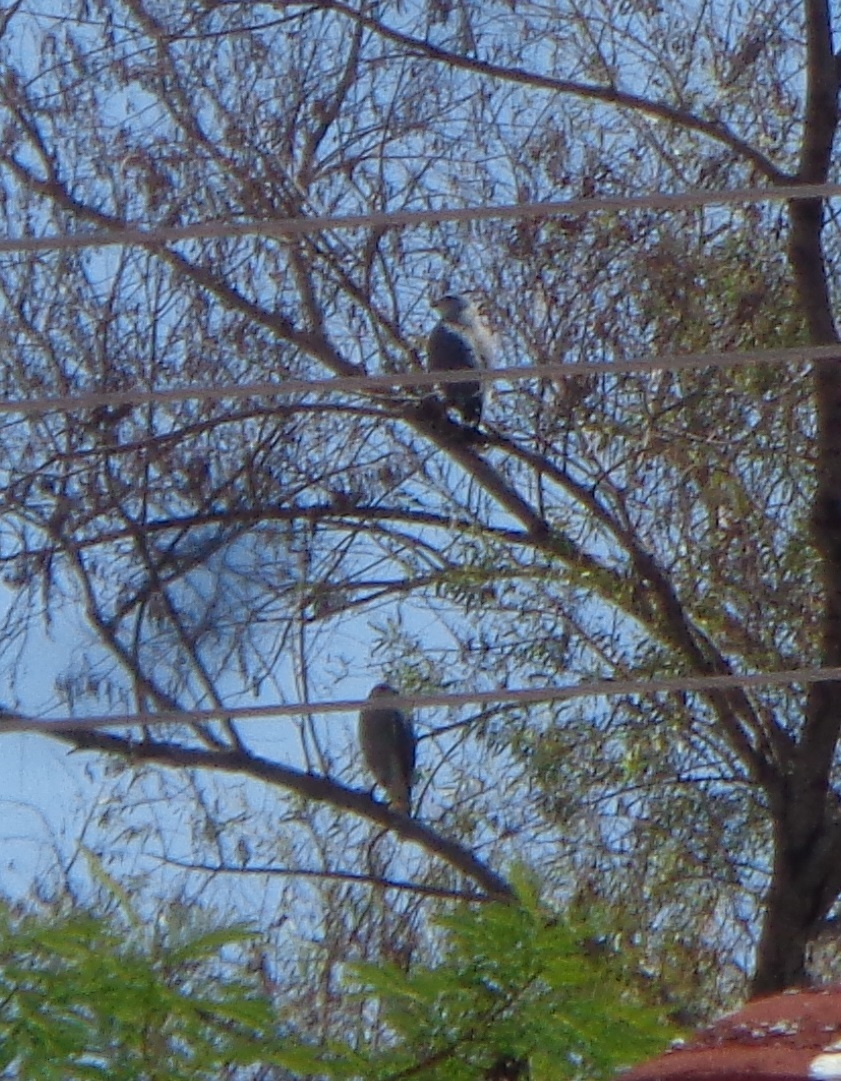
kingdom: Animalia
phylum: Chordata
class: Aves
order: Accipitriformes
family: Accipitridae
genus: Buteo
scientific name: Buteo nitidus
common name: Grey-lined hawk
